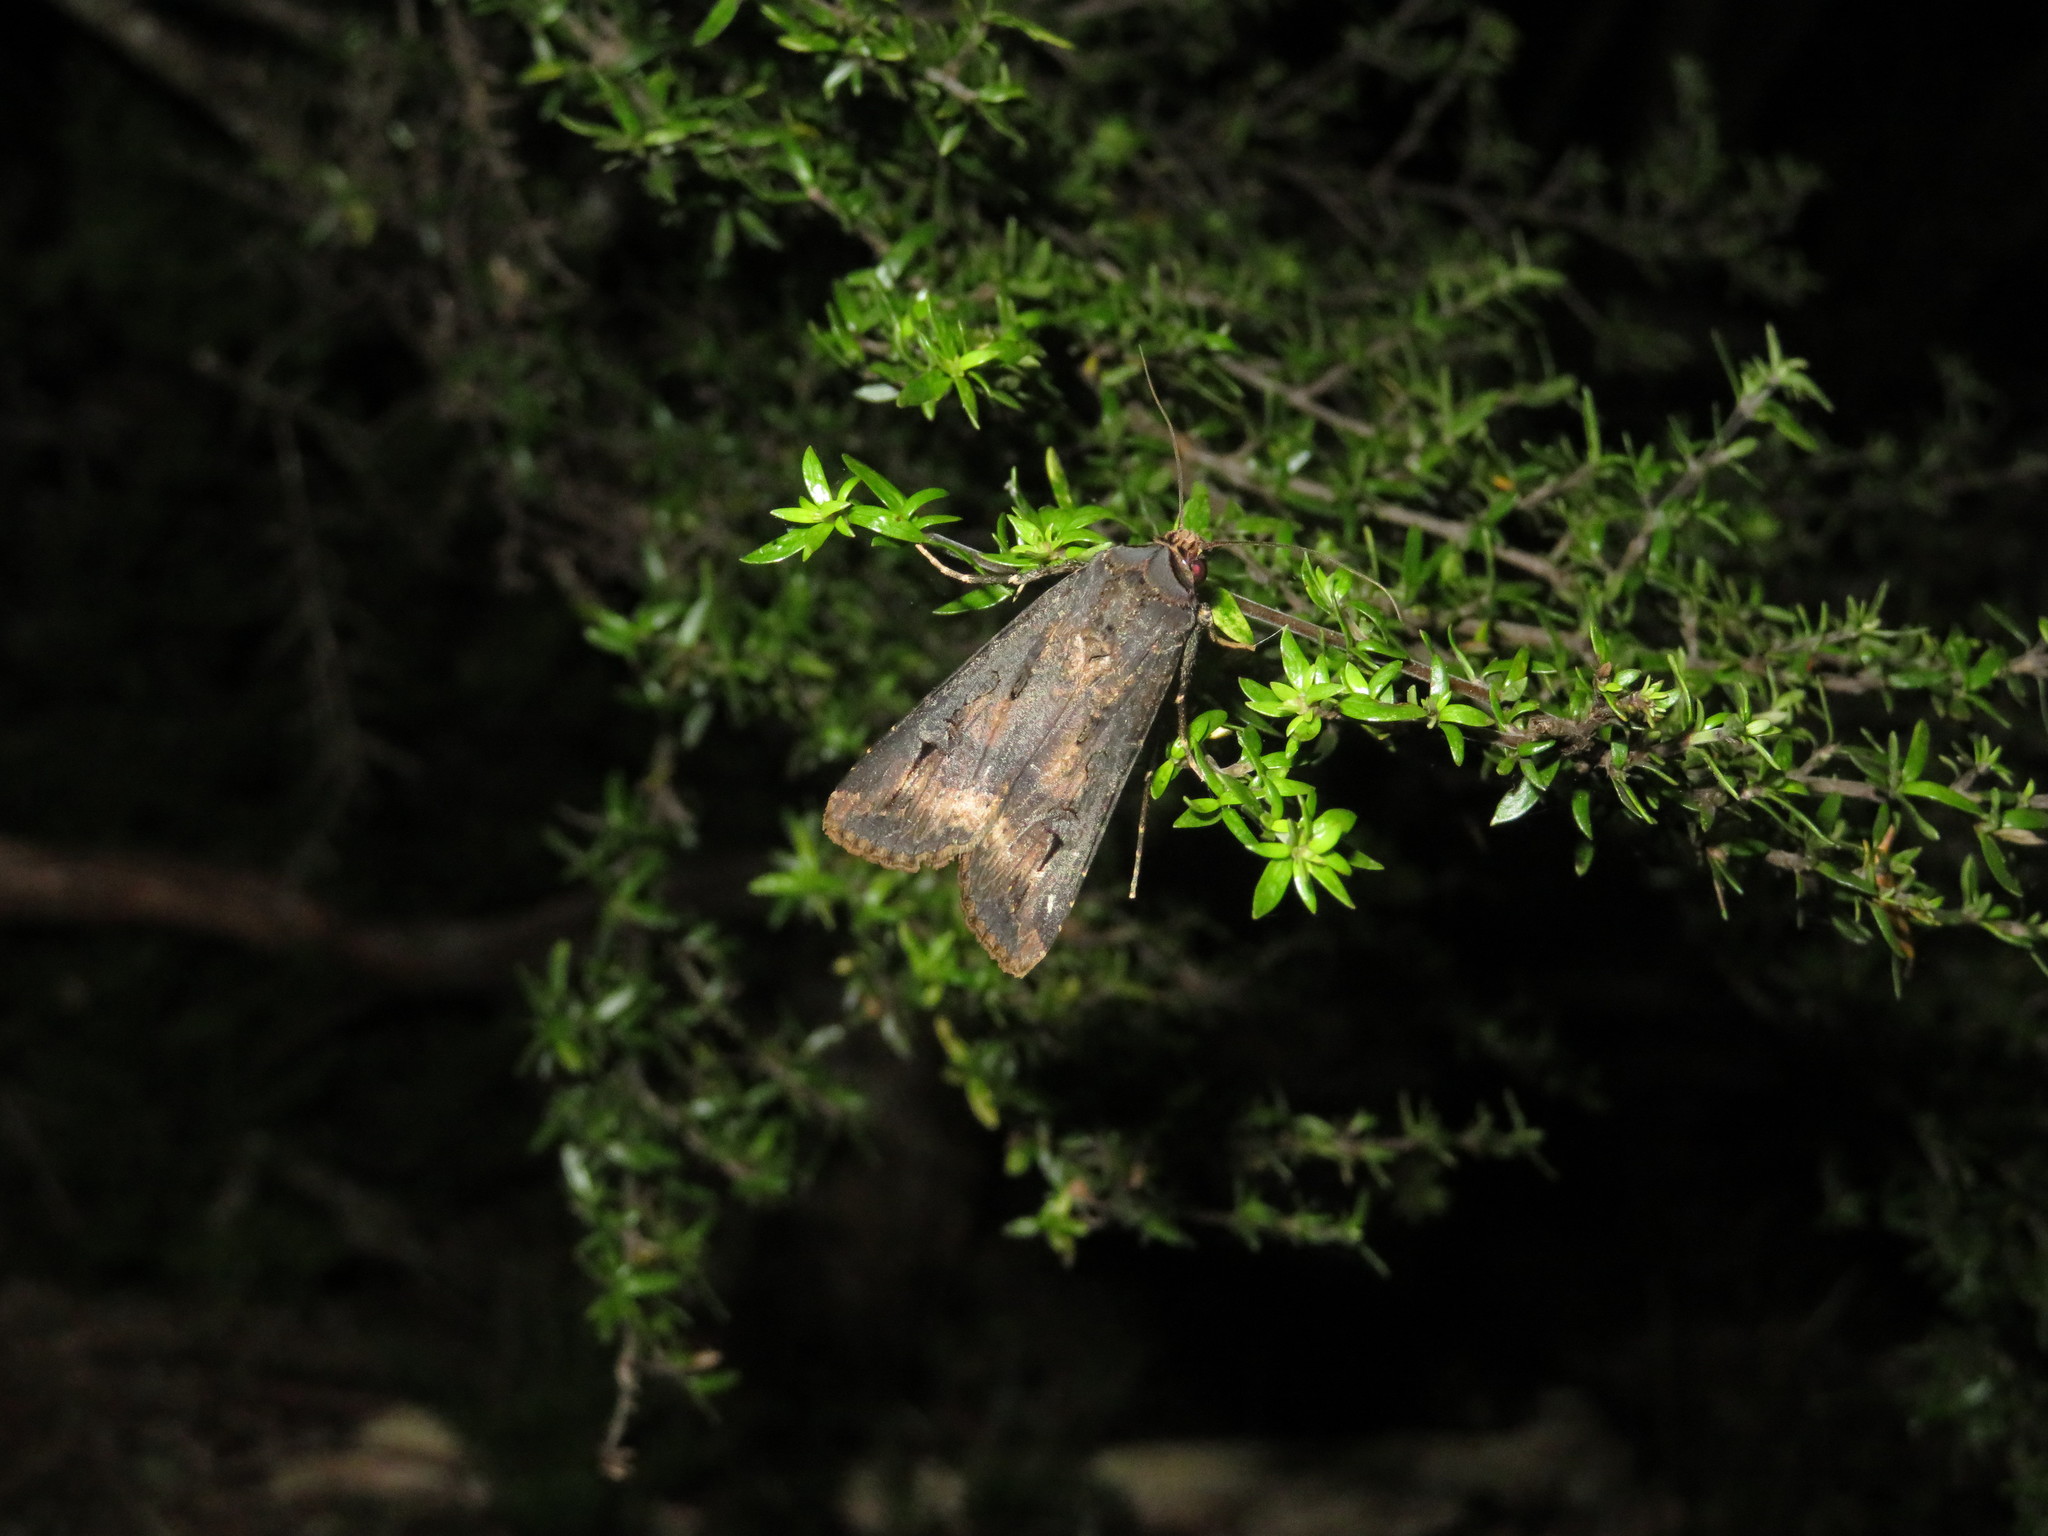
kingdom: Animalia
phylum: Arthropoda
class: Insecta
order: Lepidoptera
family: Noctuidae
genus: Agrotis
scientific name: Agrotis ipsilon
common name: Dark sword-grass
